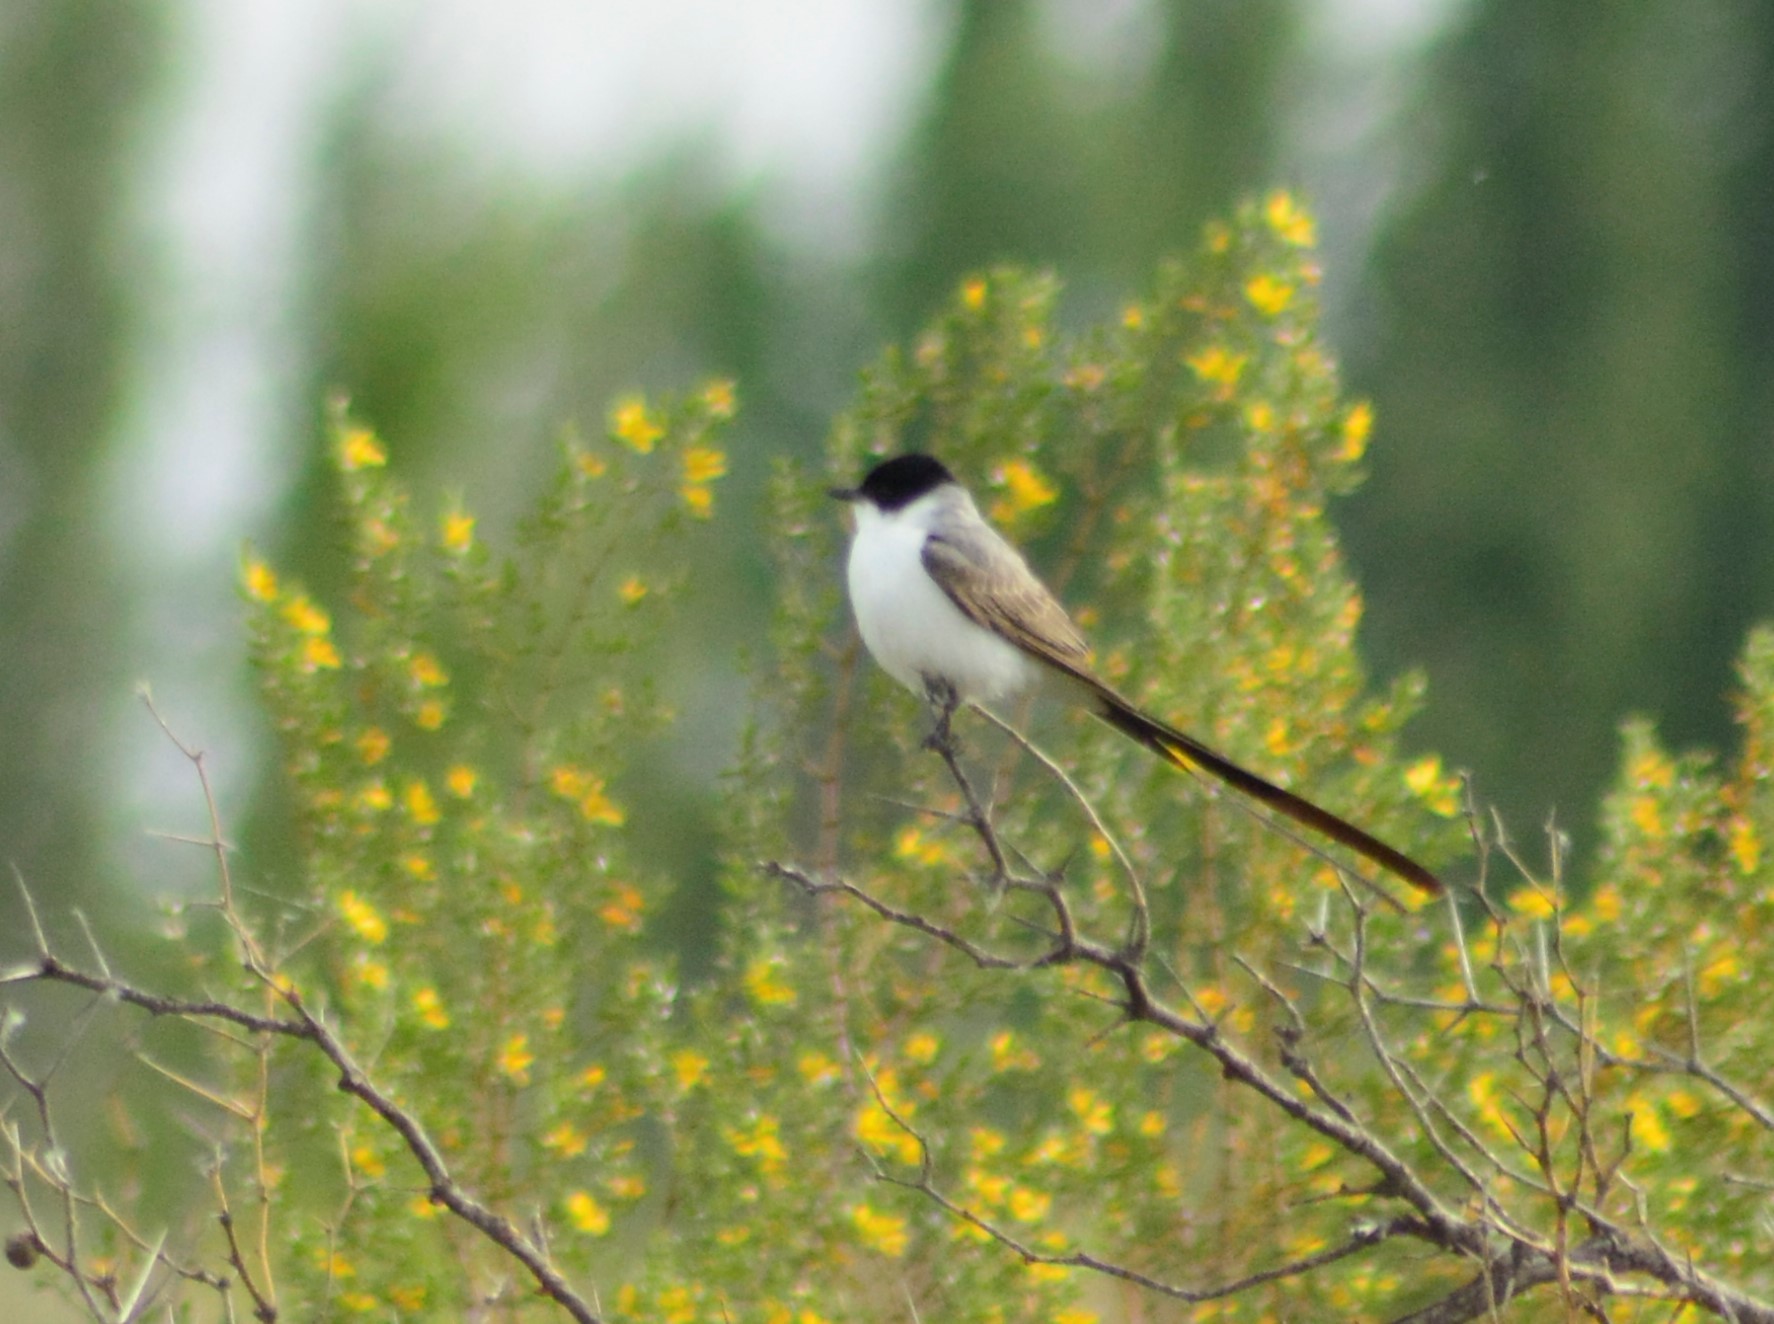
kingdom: Animalia
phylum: Chordata
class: Aves
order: Passeriformes
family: Tyrannidae
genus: Tyrannus
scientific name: Tyrannus savana
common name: Fork-tailed flycatcher
